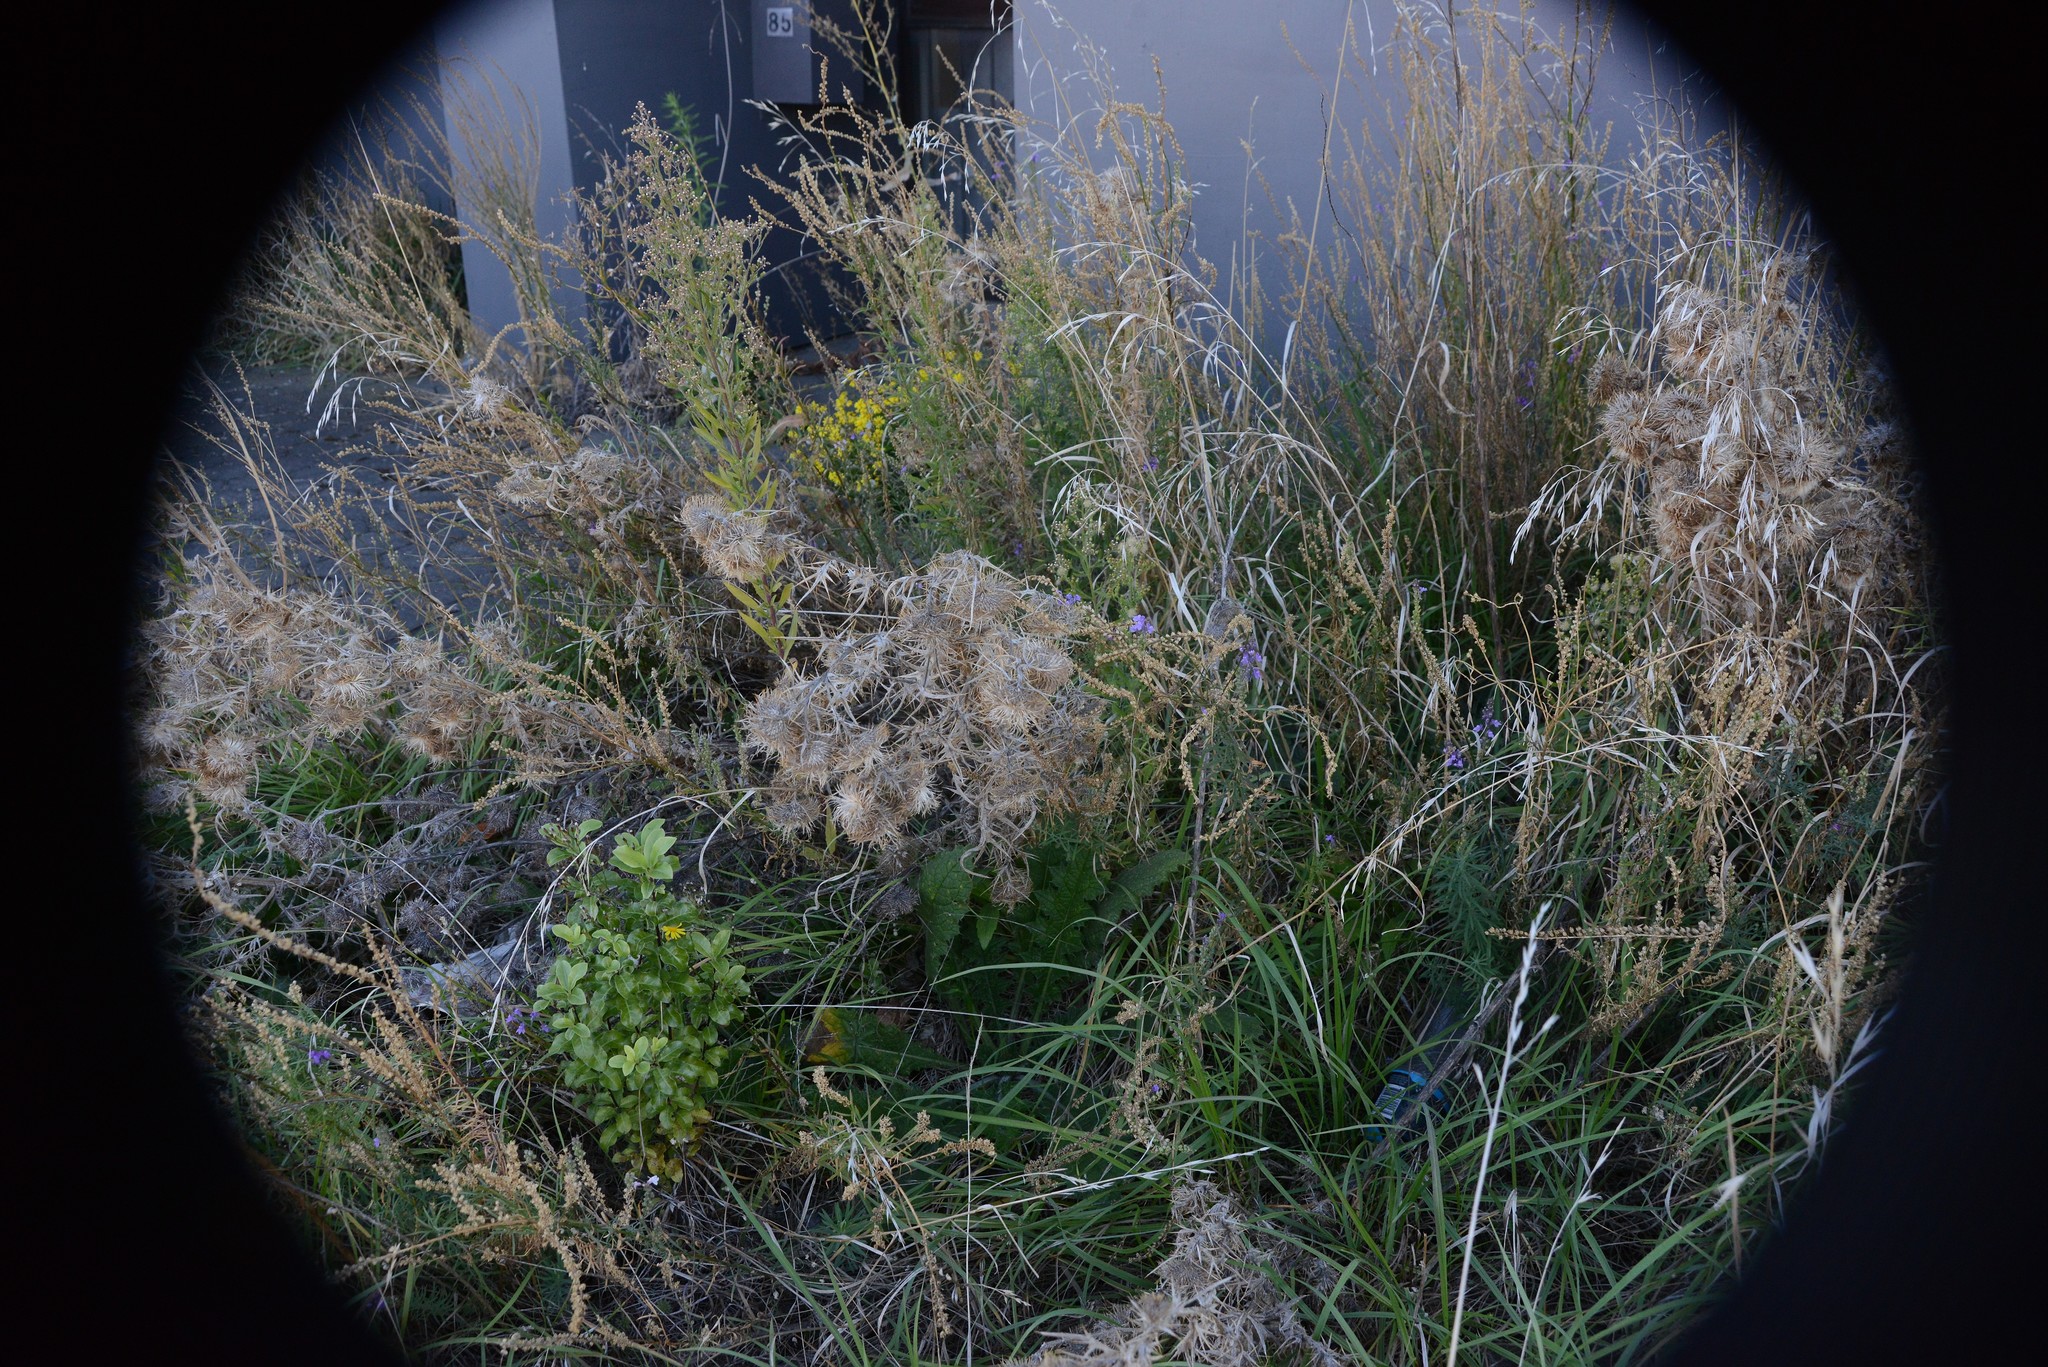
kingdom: Plantae
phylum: Tracheophyta
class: Magnoliopsida
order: Asterales
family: Asteraceae
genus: Cirsium
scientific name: Cirsium vulgare
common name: Bull thistle
